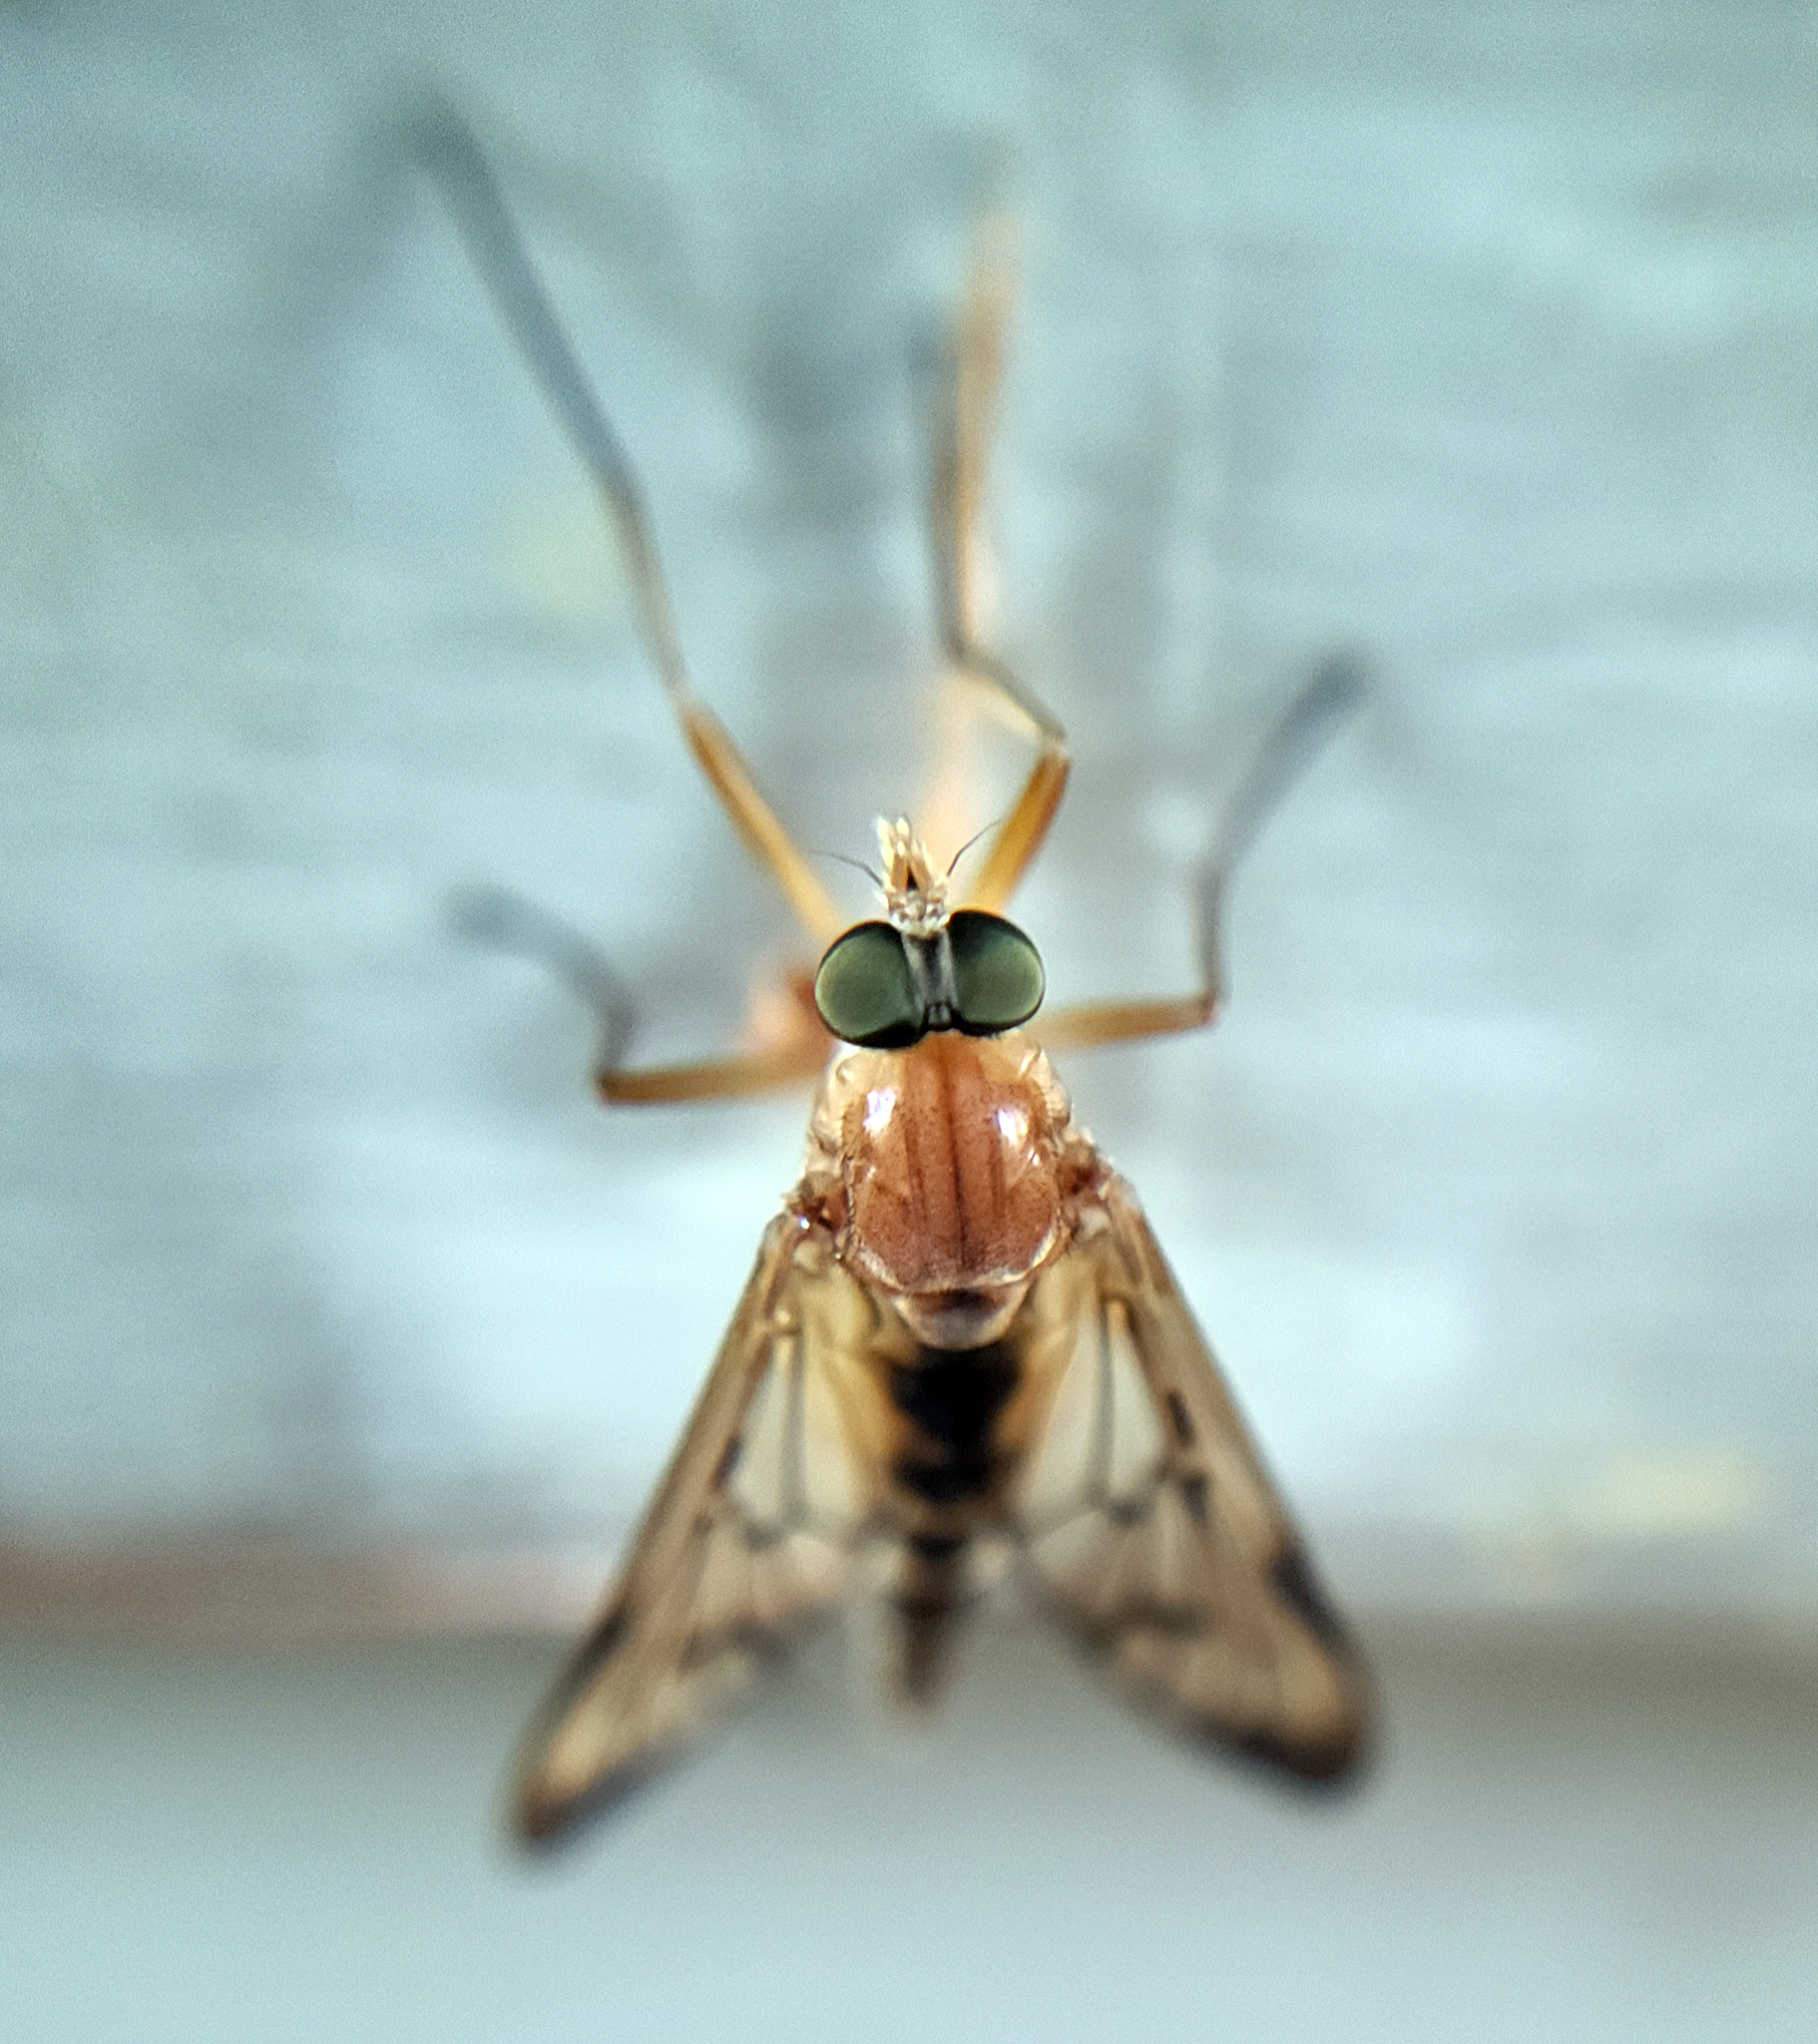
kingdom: Animalia
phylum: Arthropoda
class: Insecta
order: Diptera
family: Rhagionidae
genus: Rhagio
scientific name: Rhagio strigosus
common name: Snipe fly
